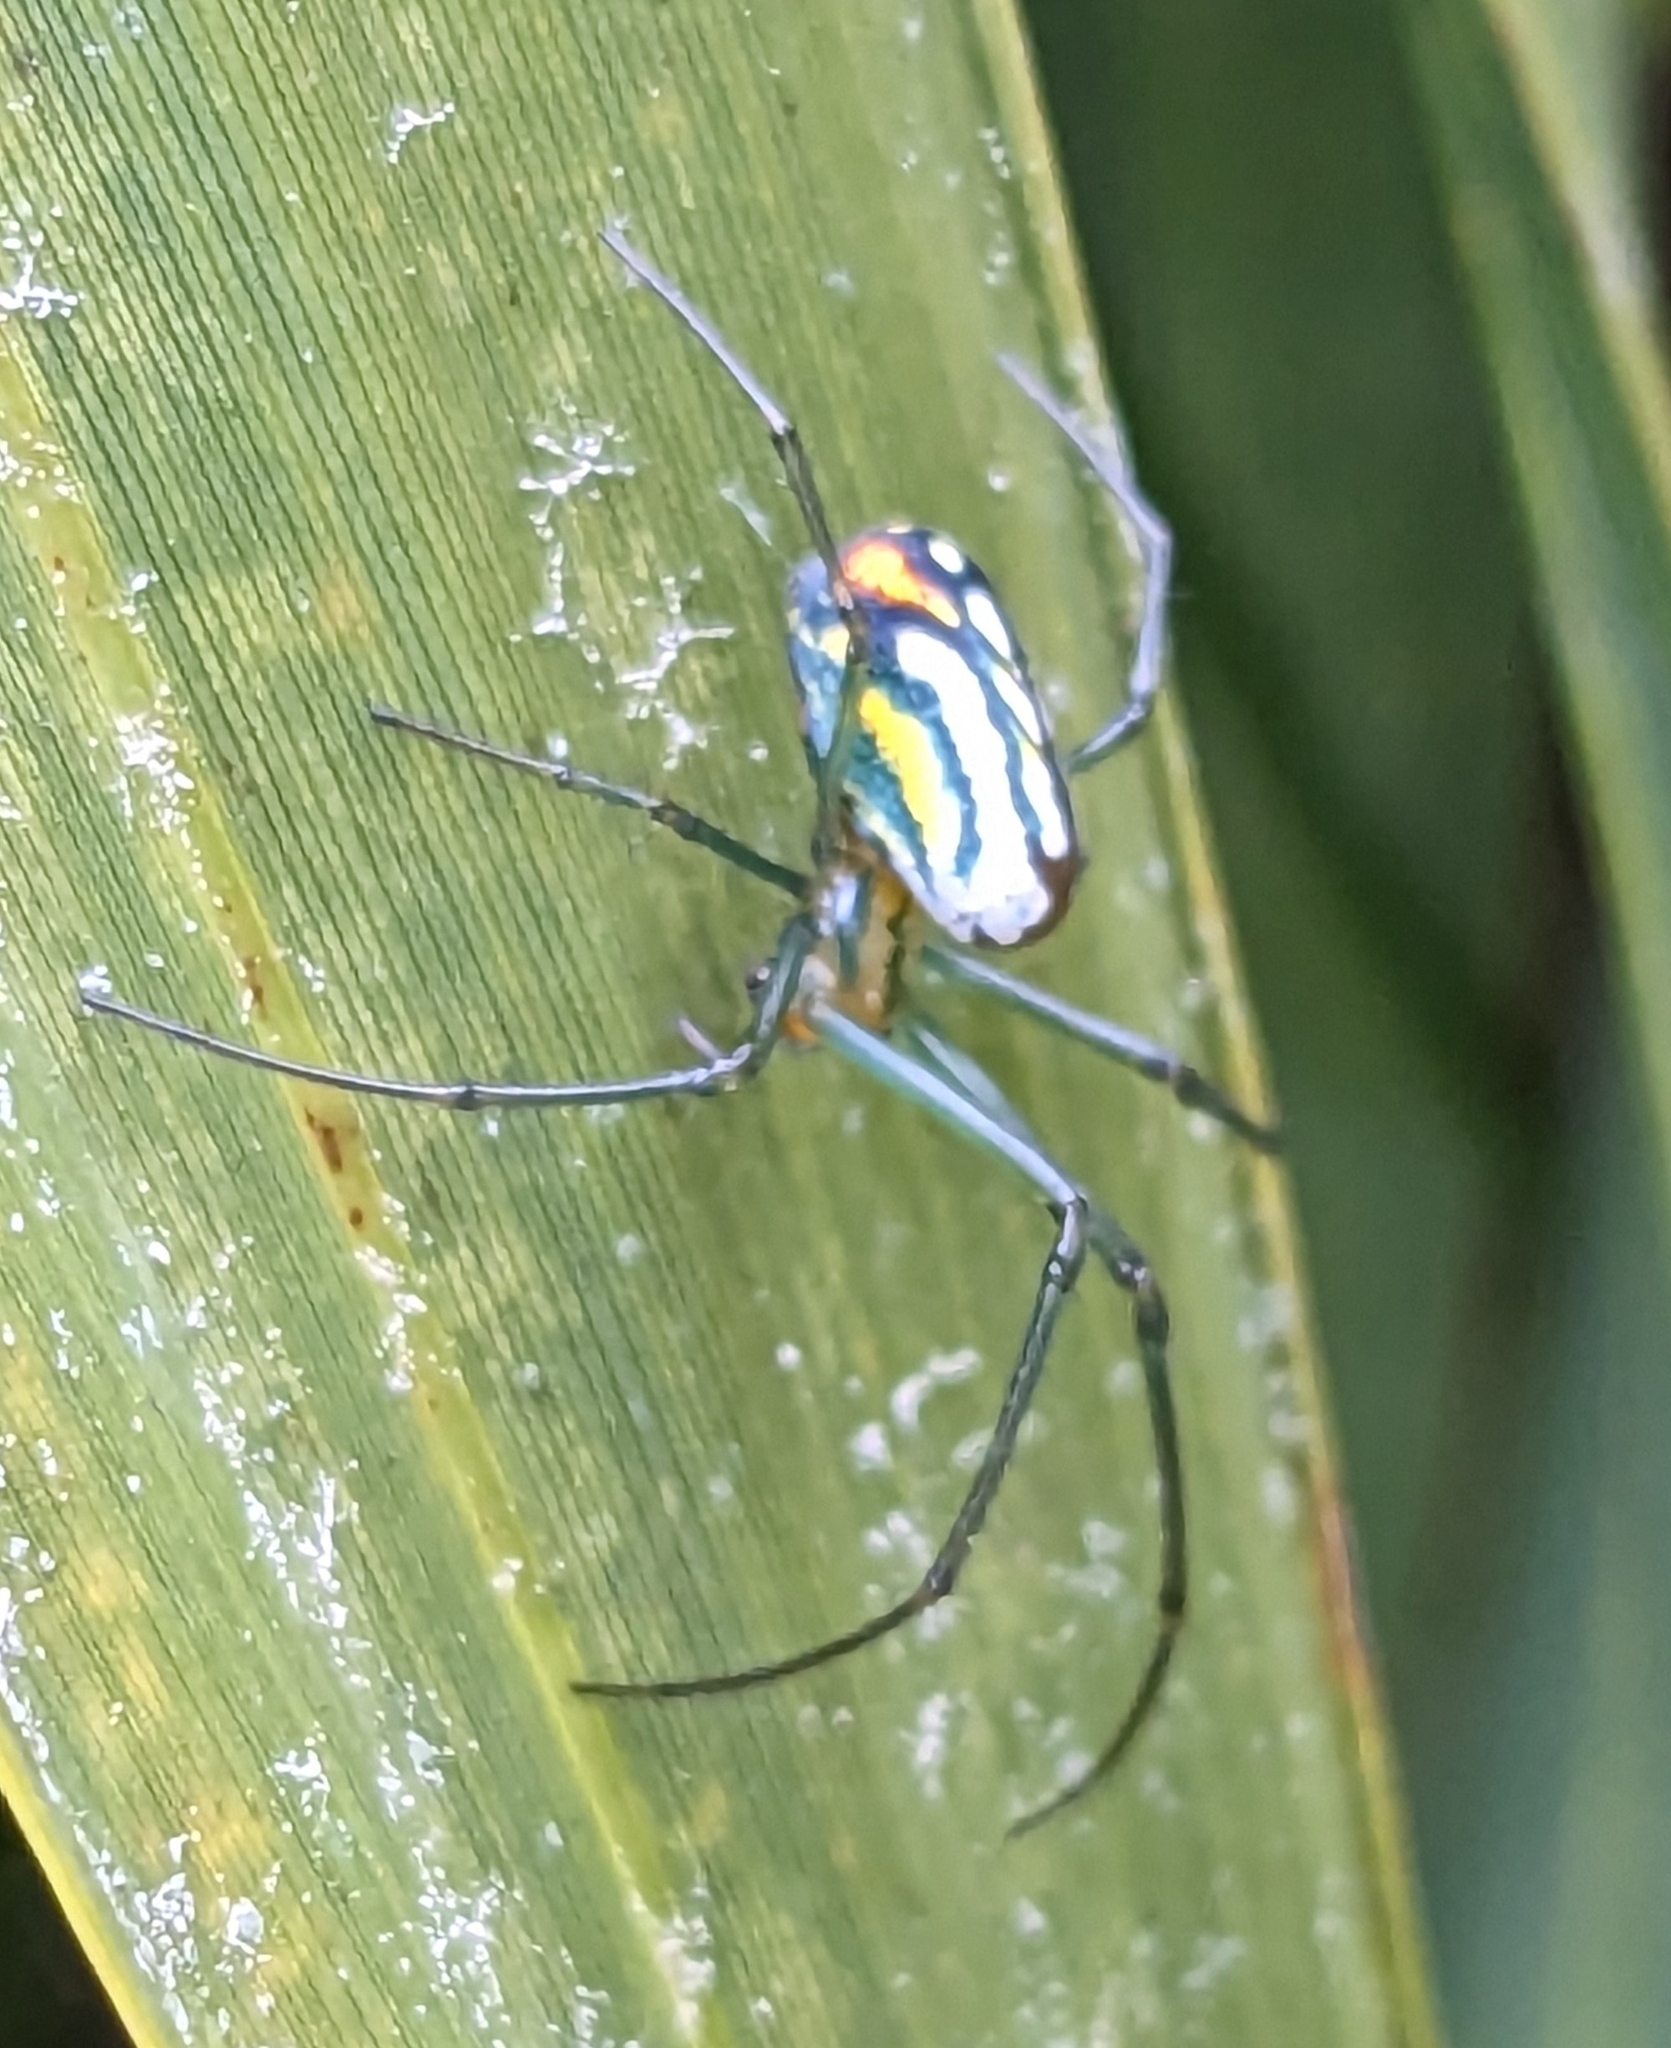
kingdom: Animalia
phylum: Arthropoda
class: Arachnida
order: Araneae
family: Tetragnathidae
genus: Leucauge
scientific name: Leucauge argyrobapta
